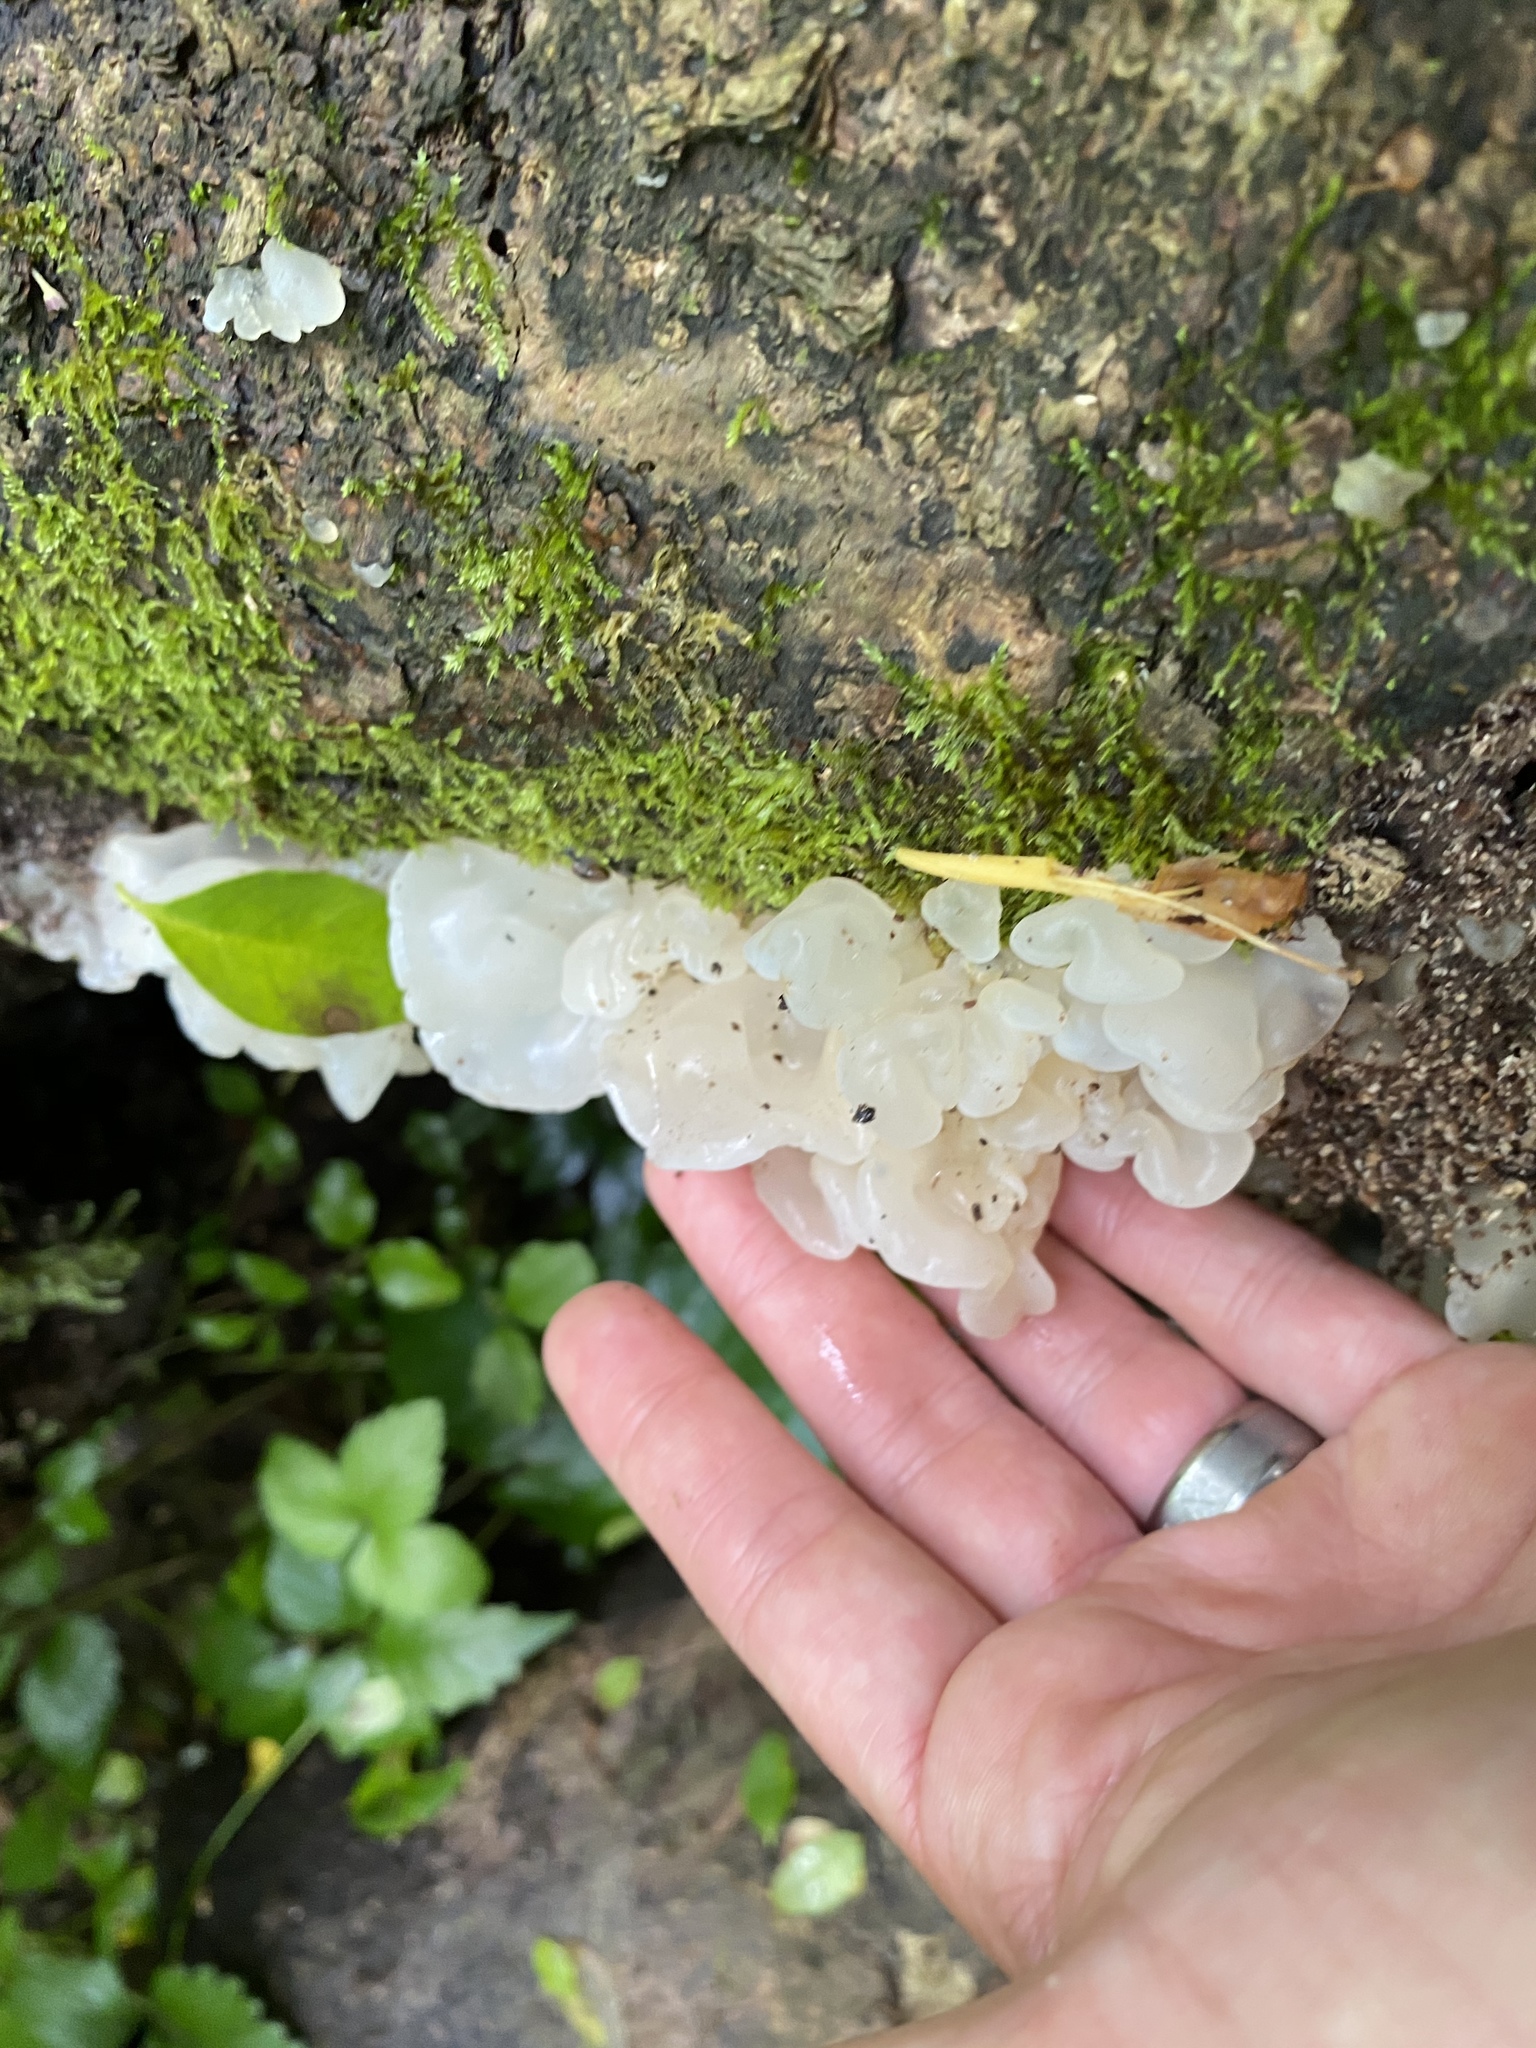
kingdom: Fungi
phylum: Basidiomycota
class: Agaricomycetes
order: Auriculariales
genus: Ductifera
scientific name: Ductifera pululahuana
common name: White jelly fungus
